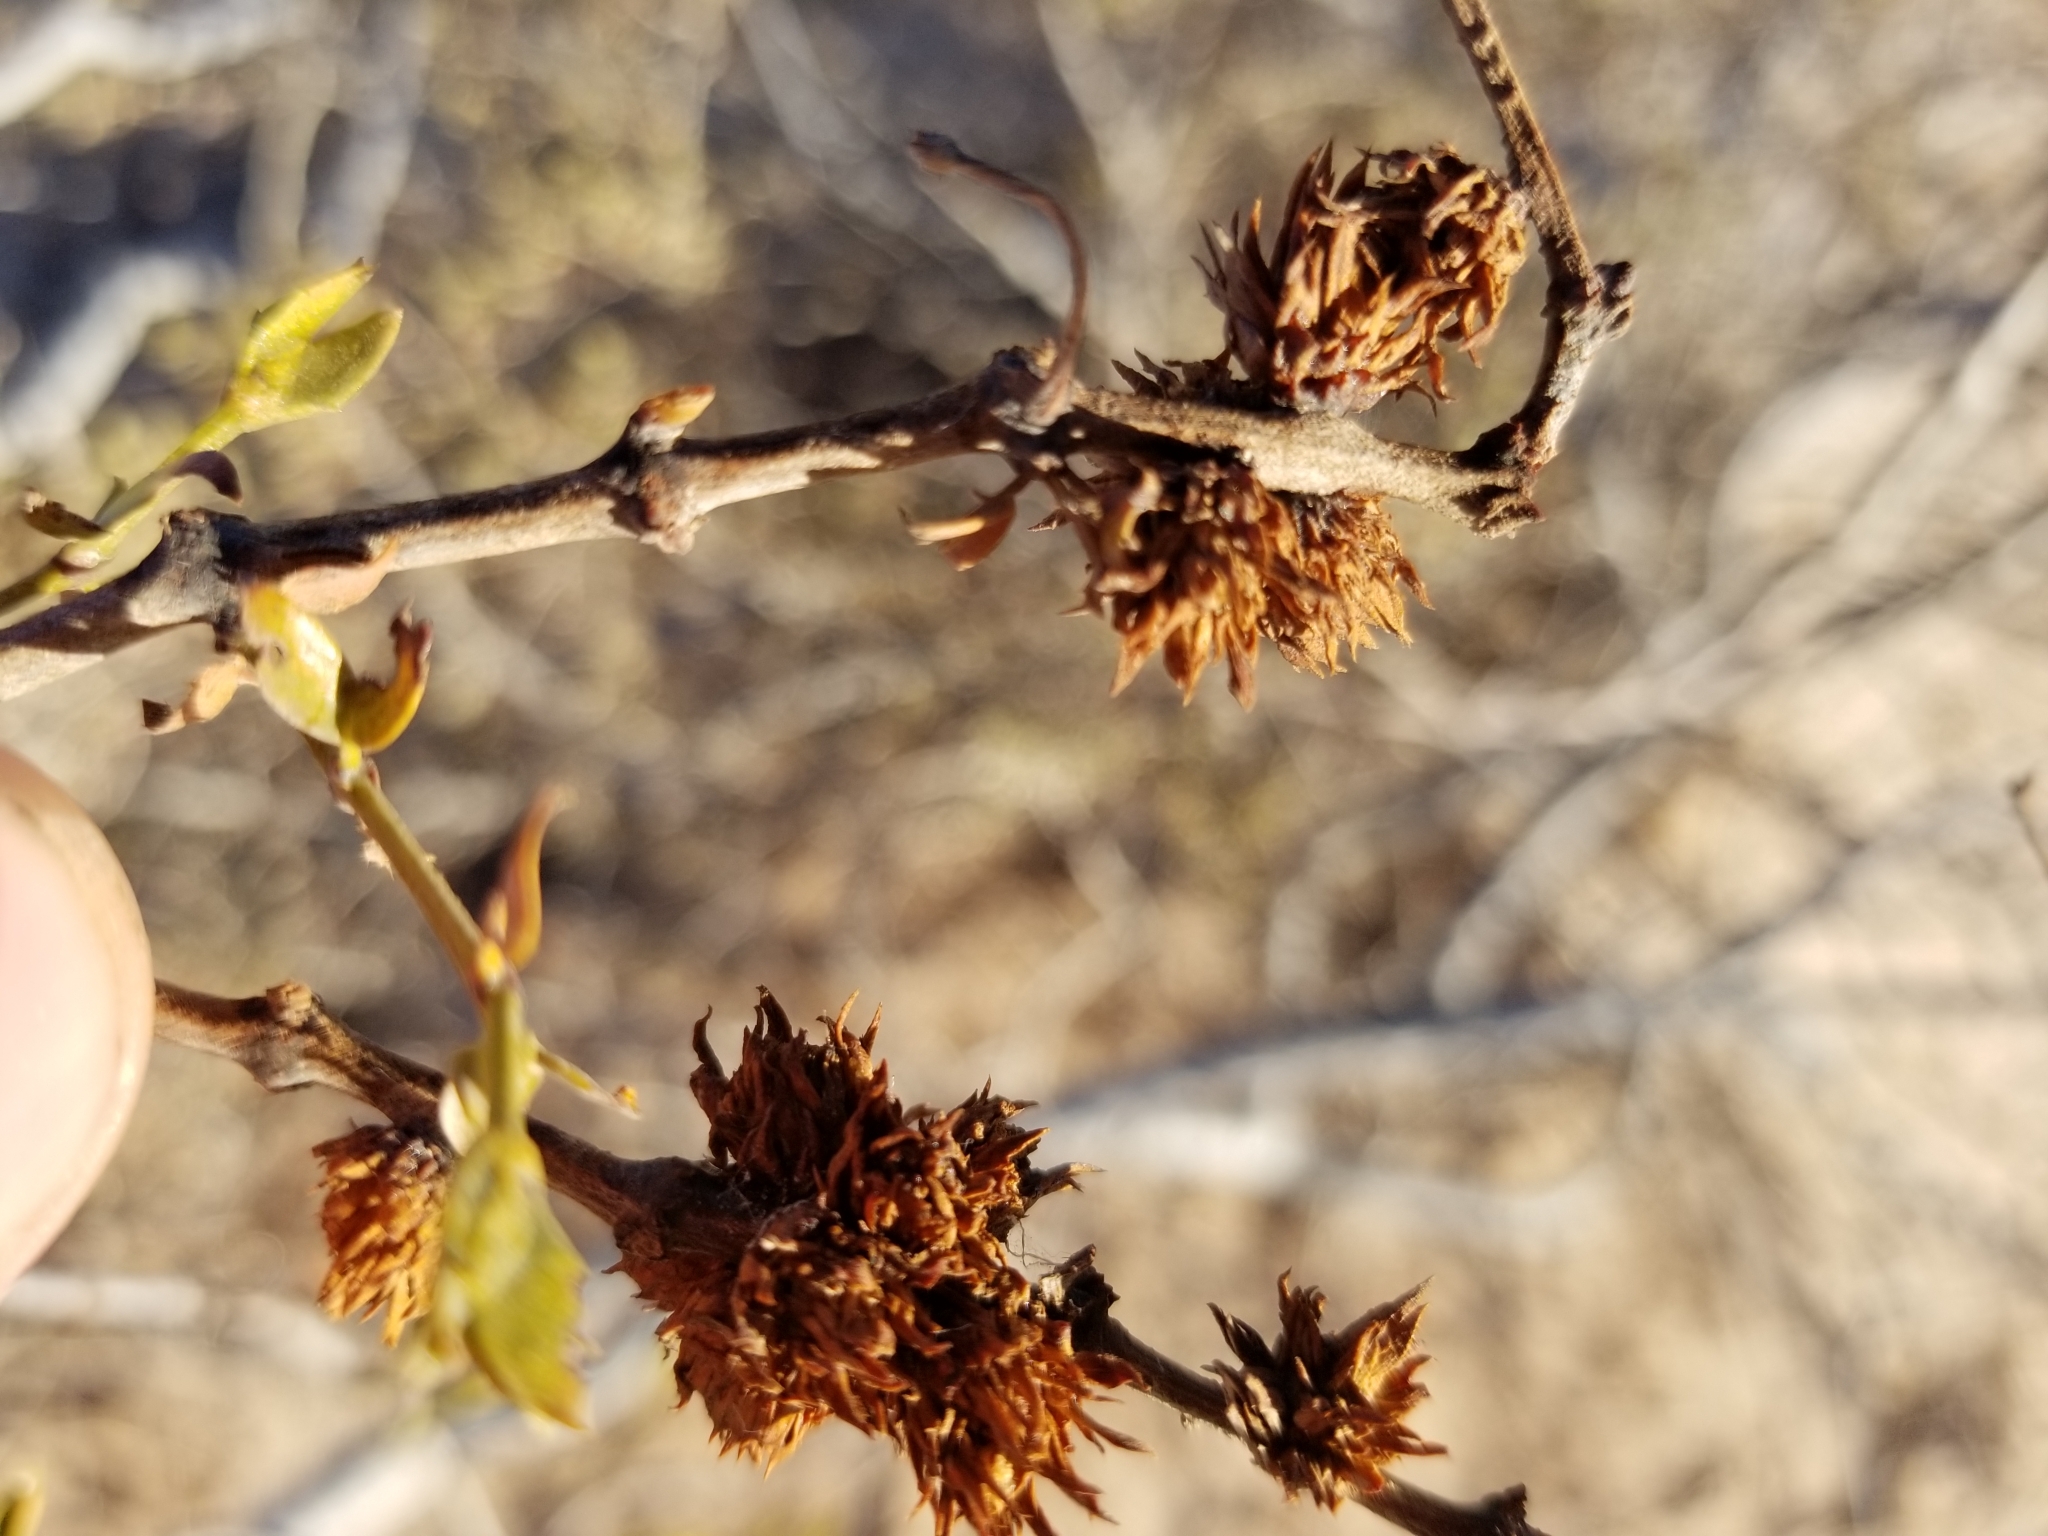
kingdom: Animalia
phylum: Arthropoda
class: Insecta
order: Diptera
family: Cecidomyiidae
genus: Asphondylia
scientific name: Asphondylia foliosa
